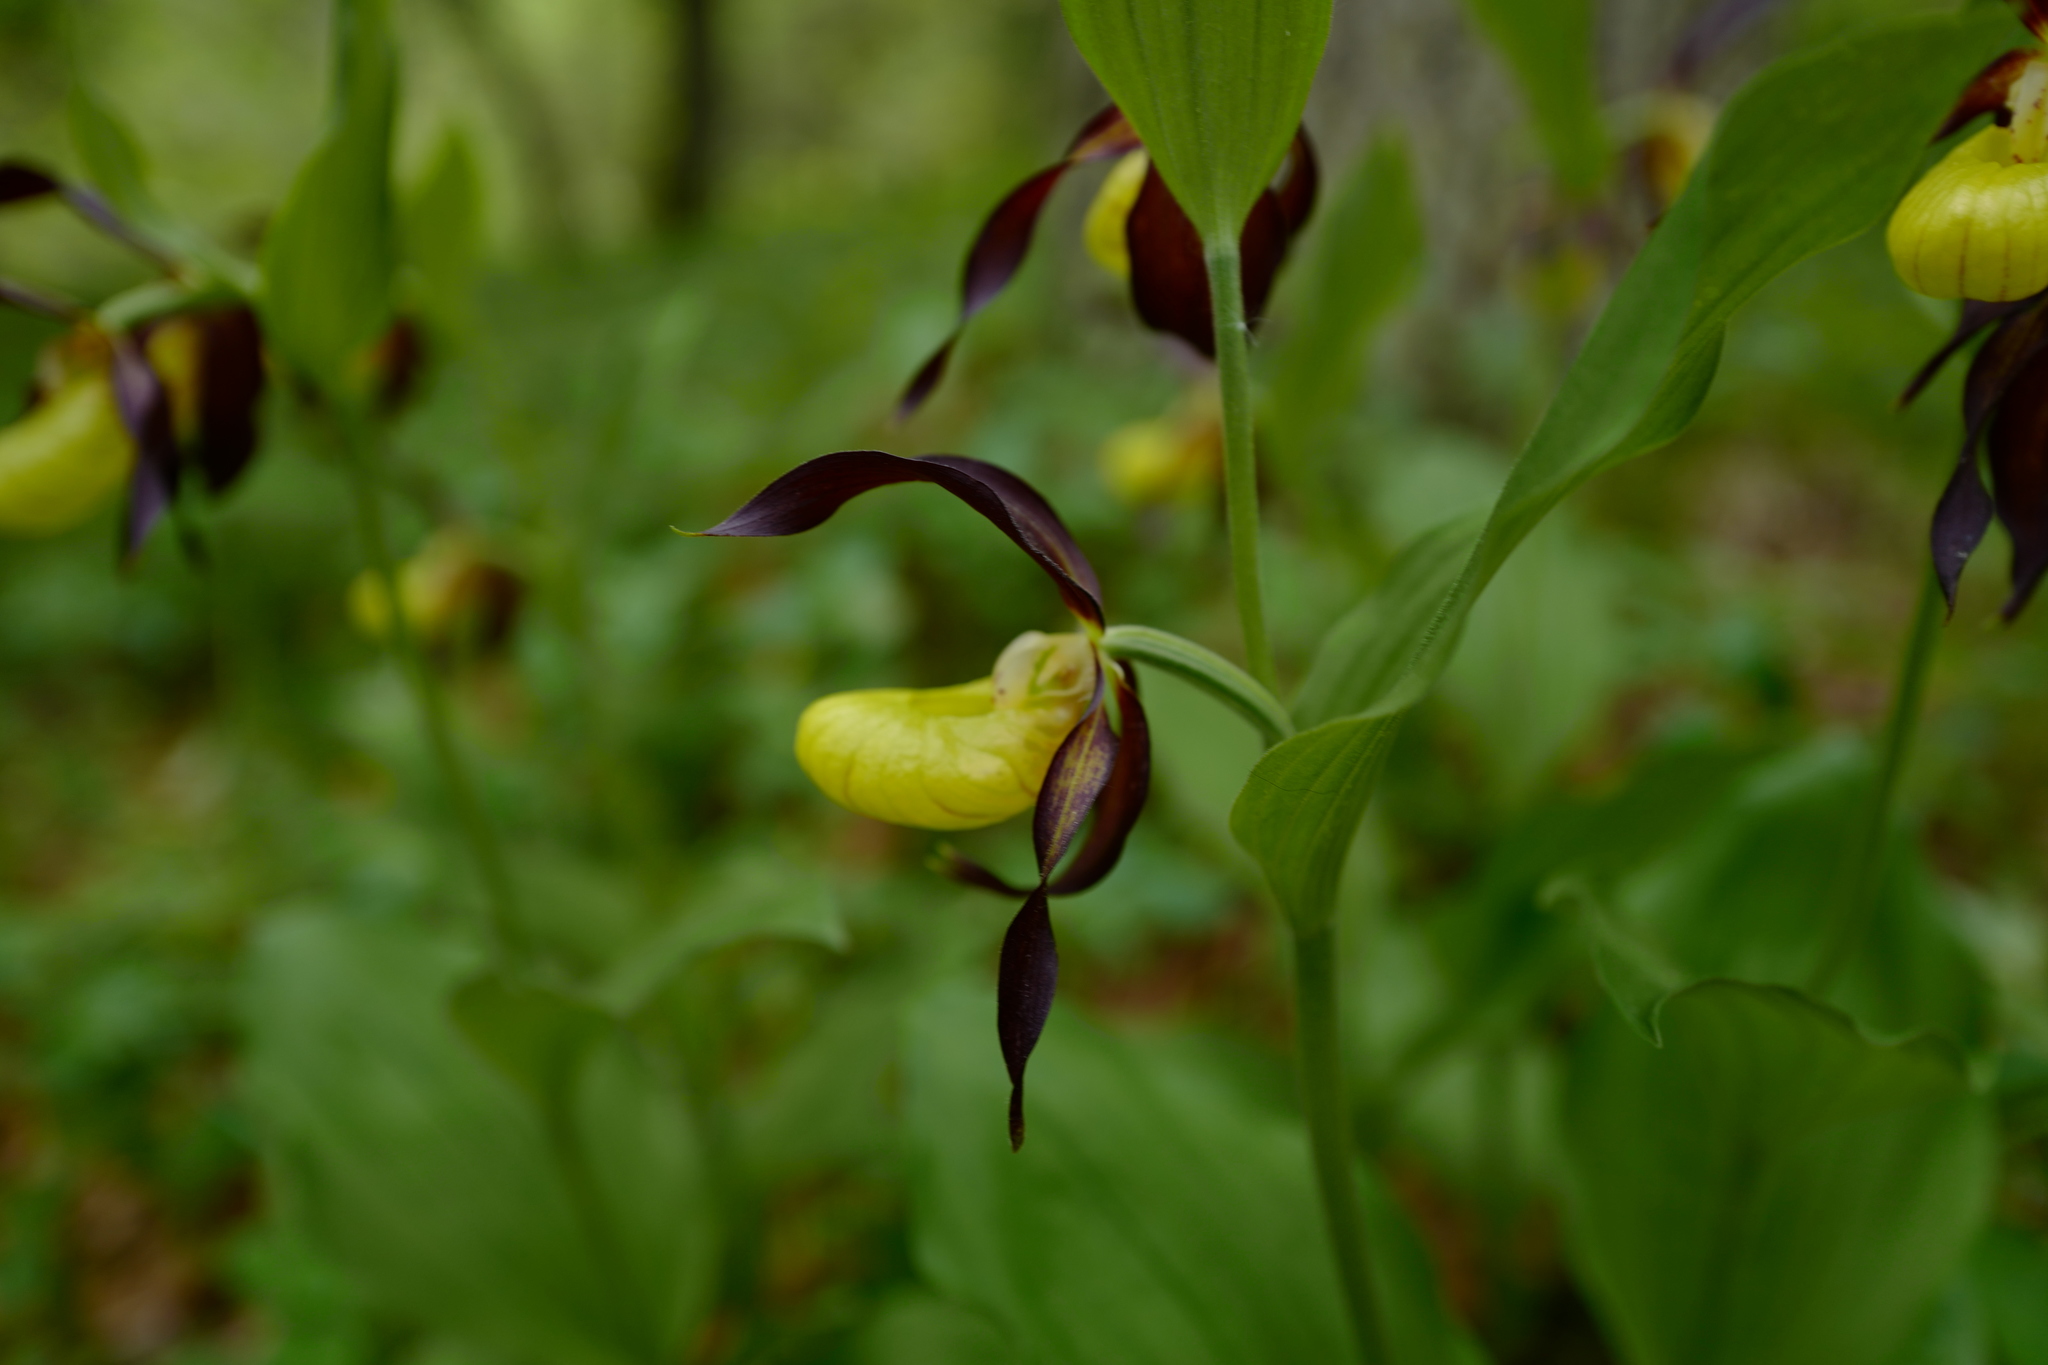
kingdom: Plantae
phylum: Tracheophyta
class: Liliopsida
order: Asparagales
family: Orchidaceae
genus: Cypripedium
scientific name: Cypripedium calceolus
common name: Lady's-slipper
